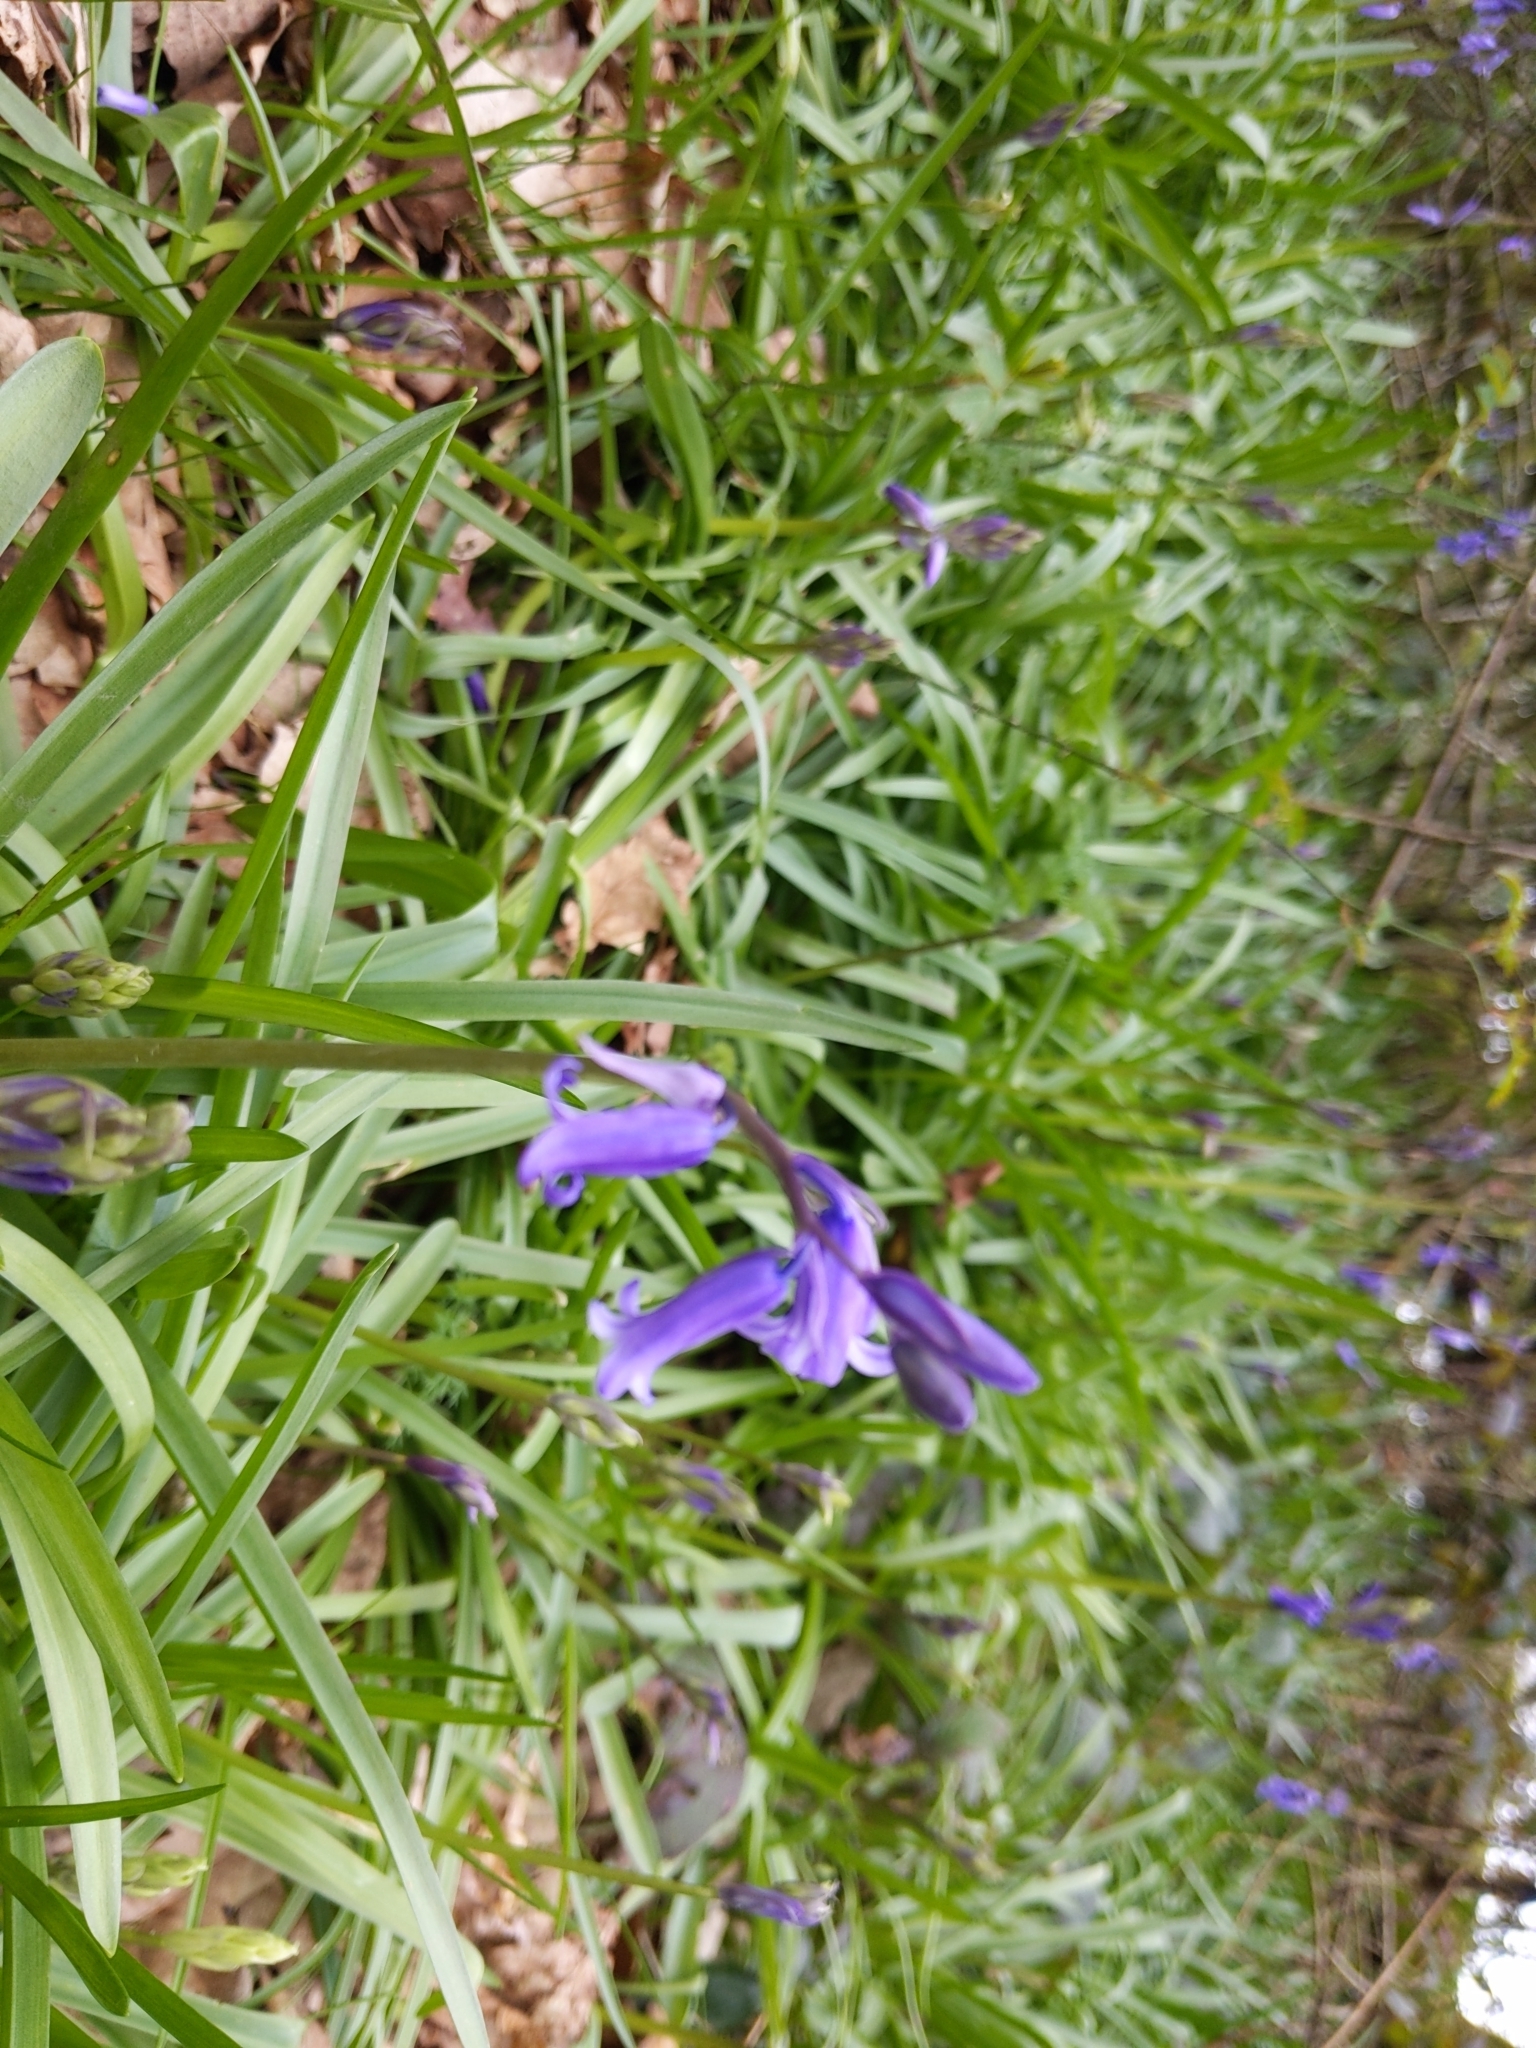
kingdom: Plantae
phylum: Tracheophyta
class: Liliopsida
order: Asparagales
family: Asparagaceae
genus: Hyacinthoides
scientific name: Hyacinthoides non-scripta
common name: Bluebell
